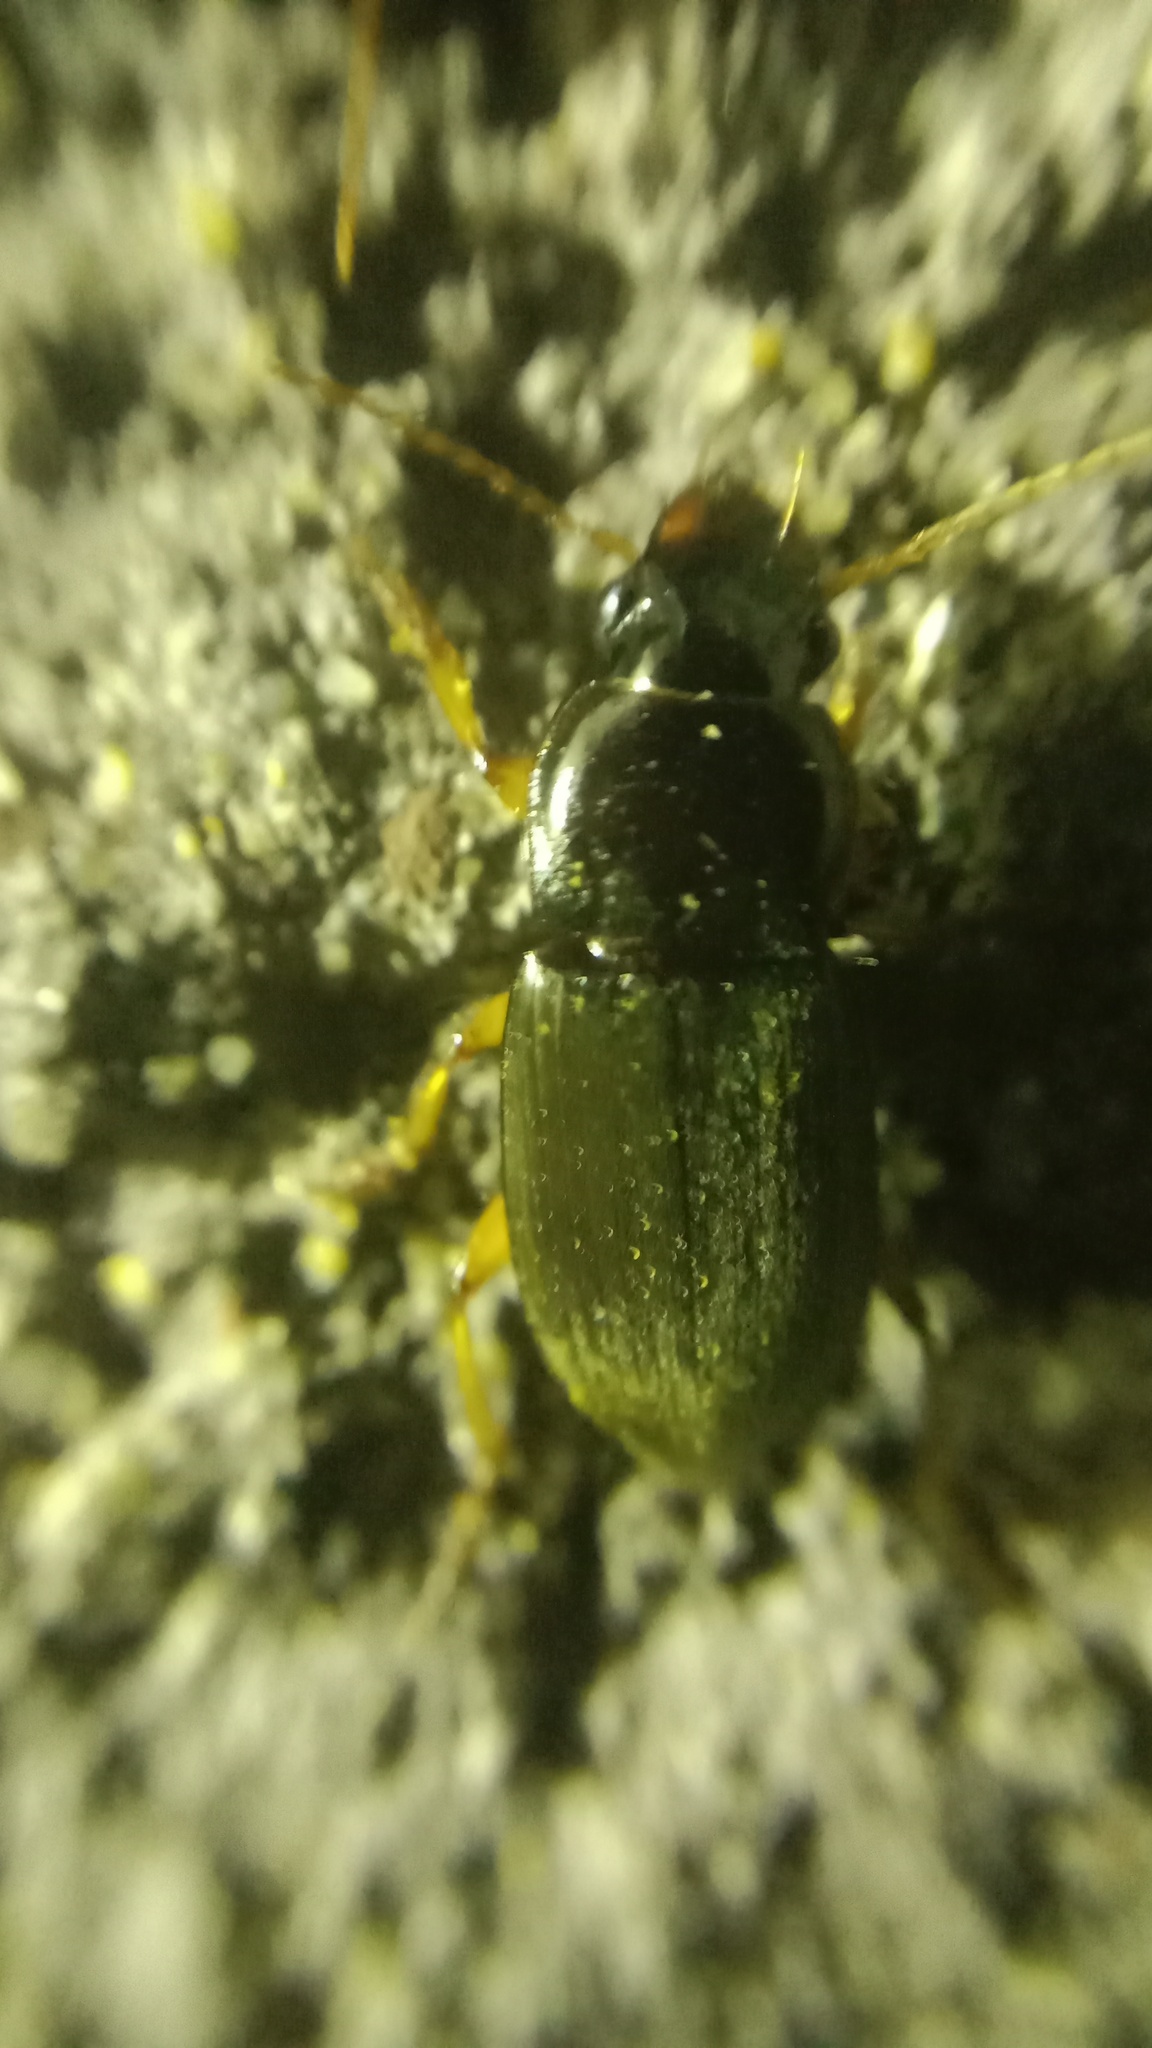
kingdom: Animalia
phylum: Arthropoda
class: Insecta
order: Coleoptera
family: Carabidae
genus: Harpalus
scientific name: Harpalus rufipes
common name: Strawberry harp ground beetle
